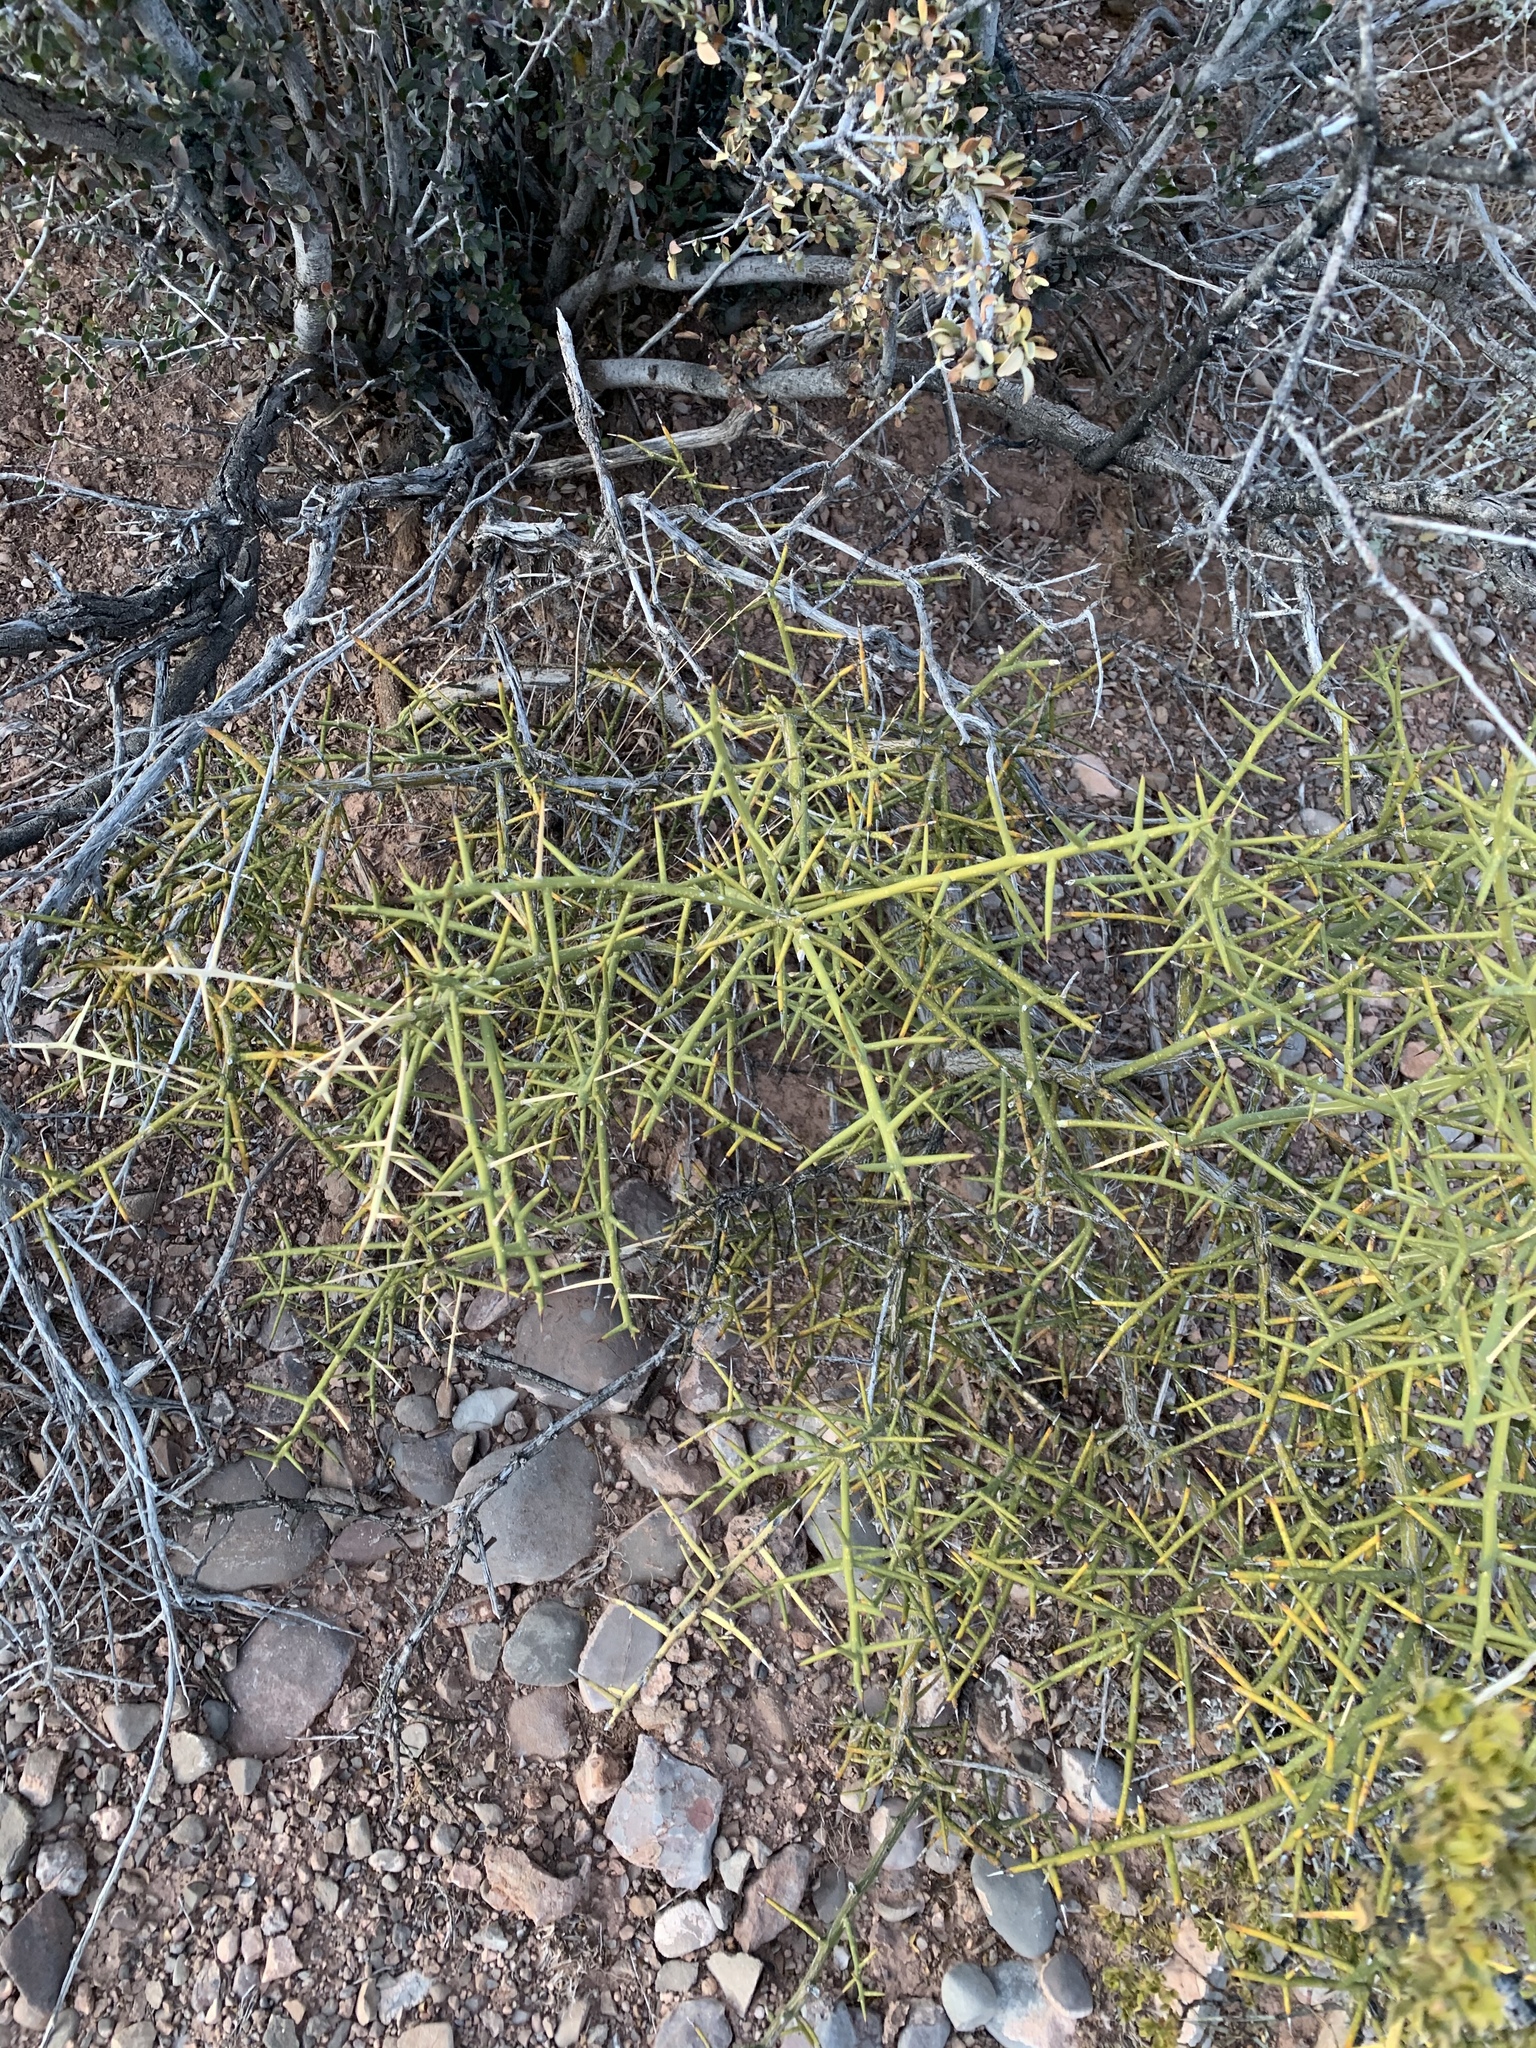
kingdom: Plantae
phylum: Tracheophyta
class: Magnoliopsida
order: Brassicales
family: Koeberliniaceae
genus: Koeberlinia
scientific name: Koeberlinia spinosa
